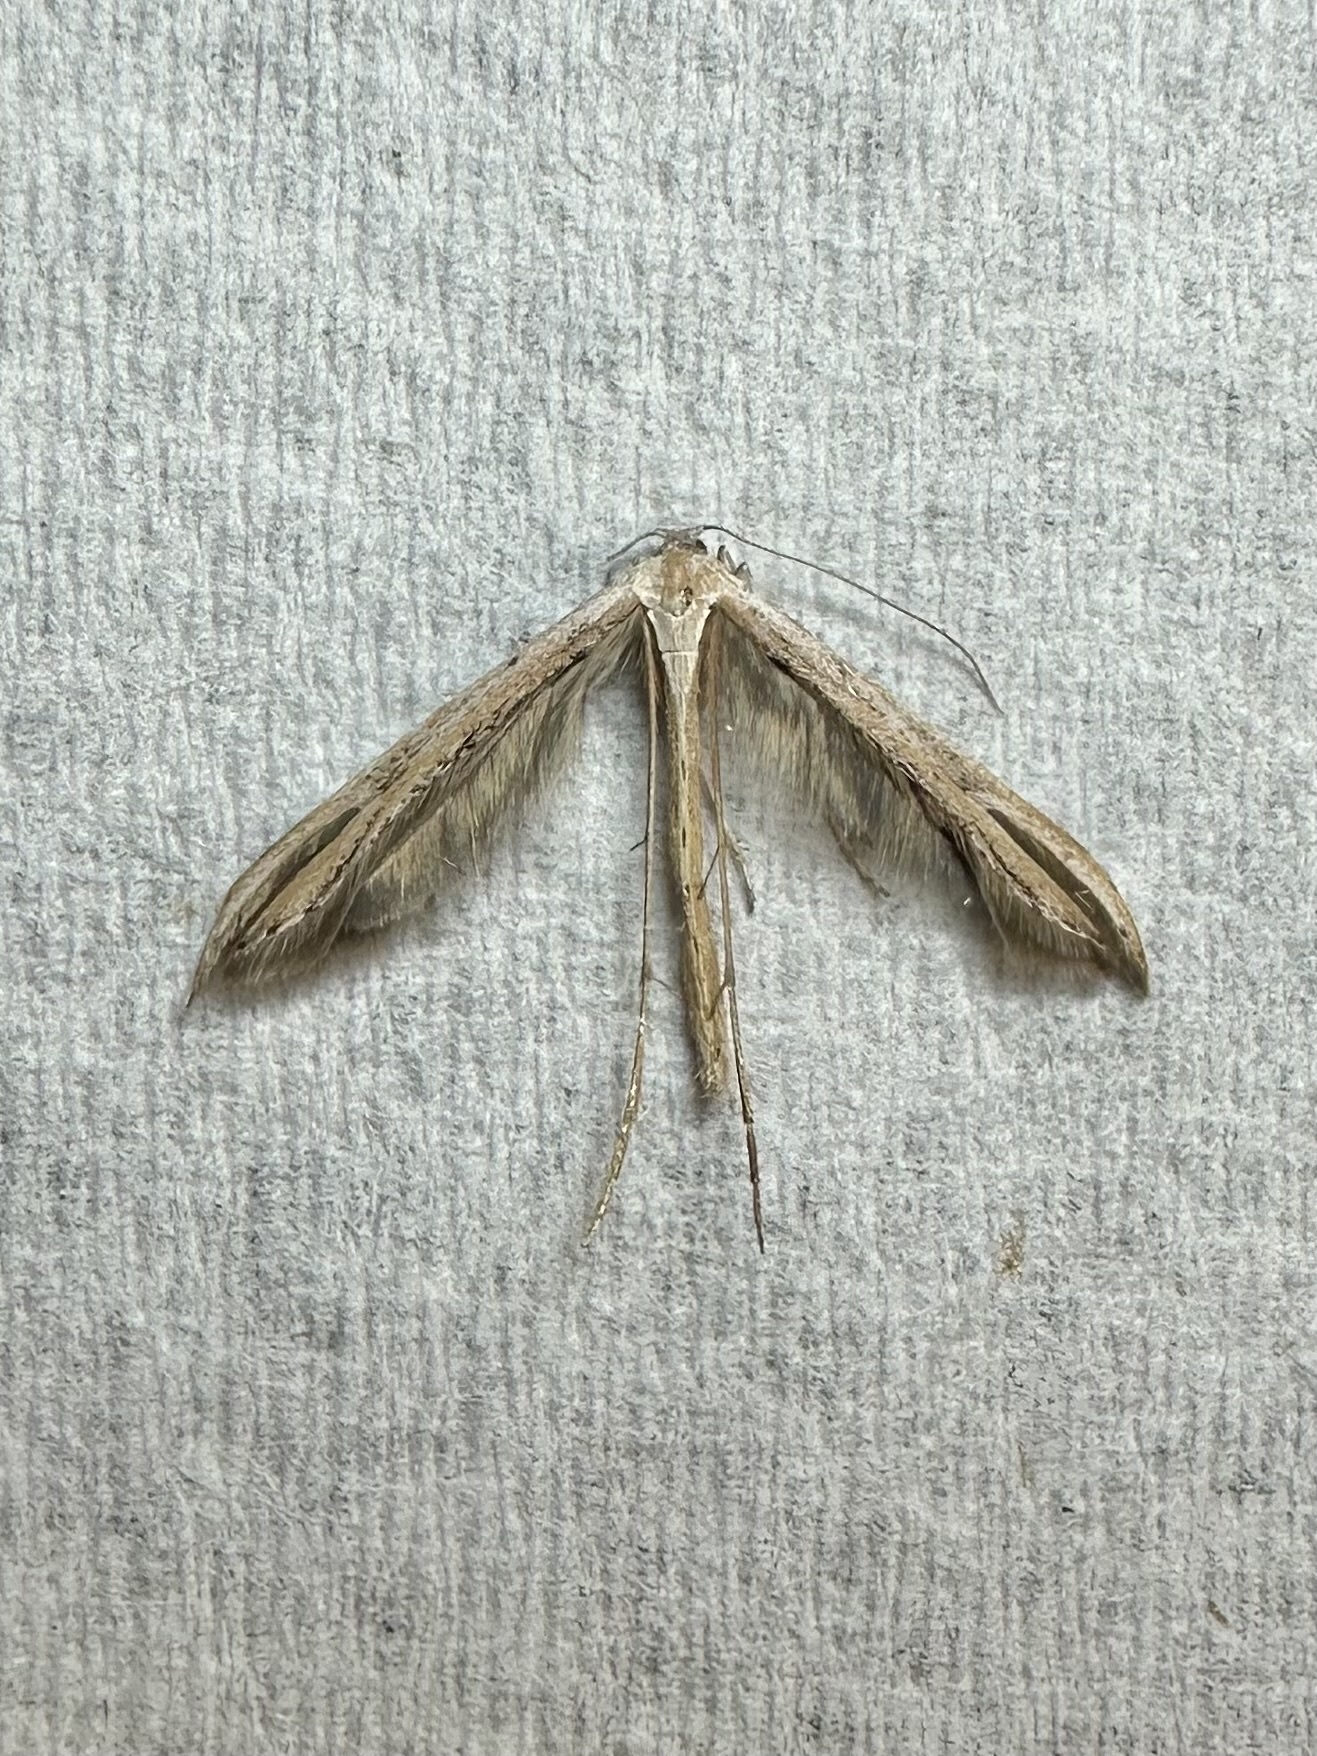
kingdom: Animalia
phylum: Arthropoda
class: Insecta
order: Lepidoptera
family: Pterophoridae
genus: Emmelina
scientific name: Emmelina monodactyla
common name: Common plume
